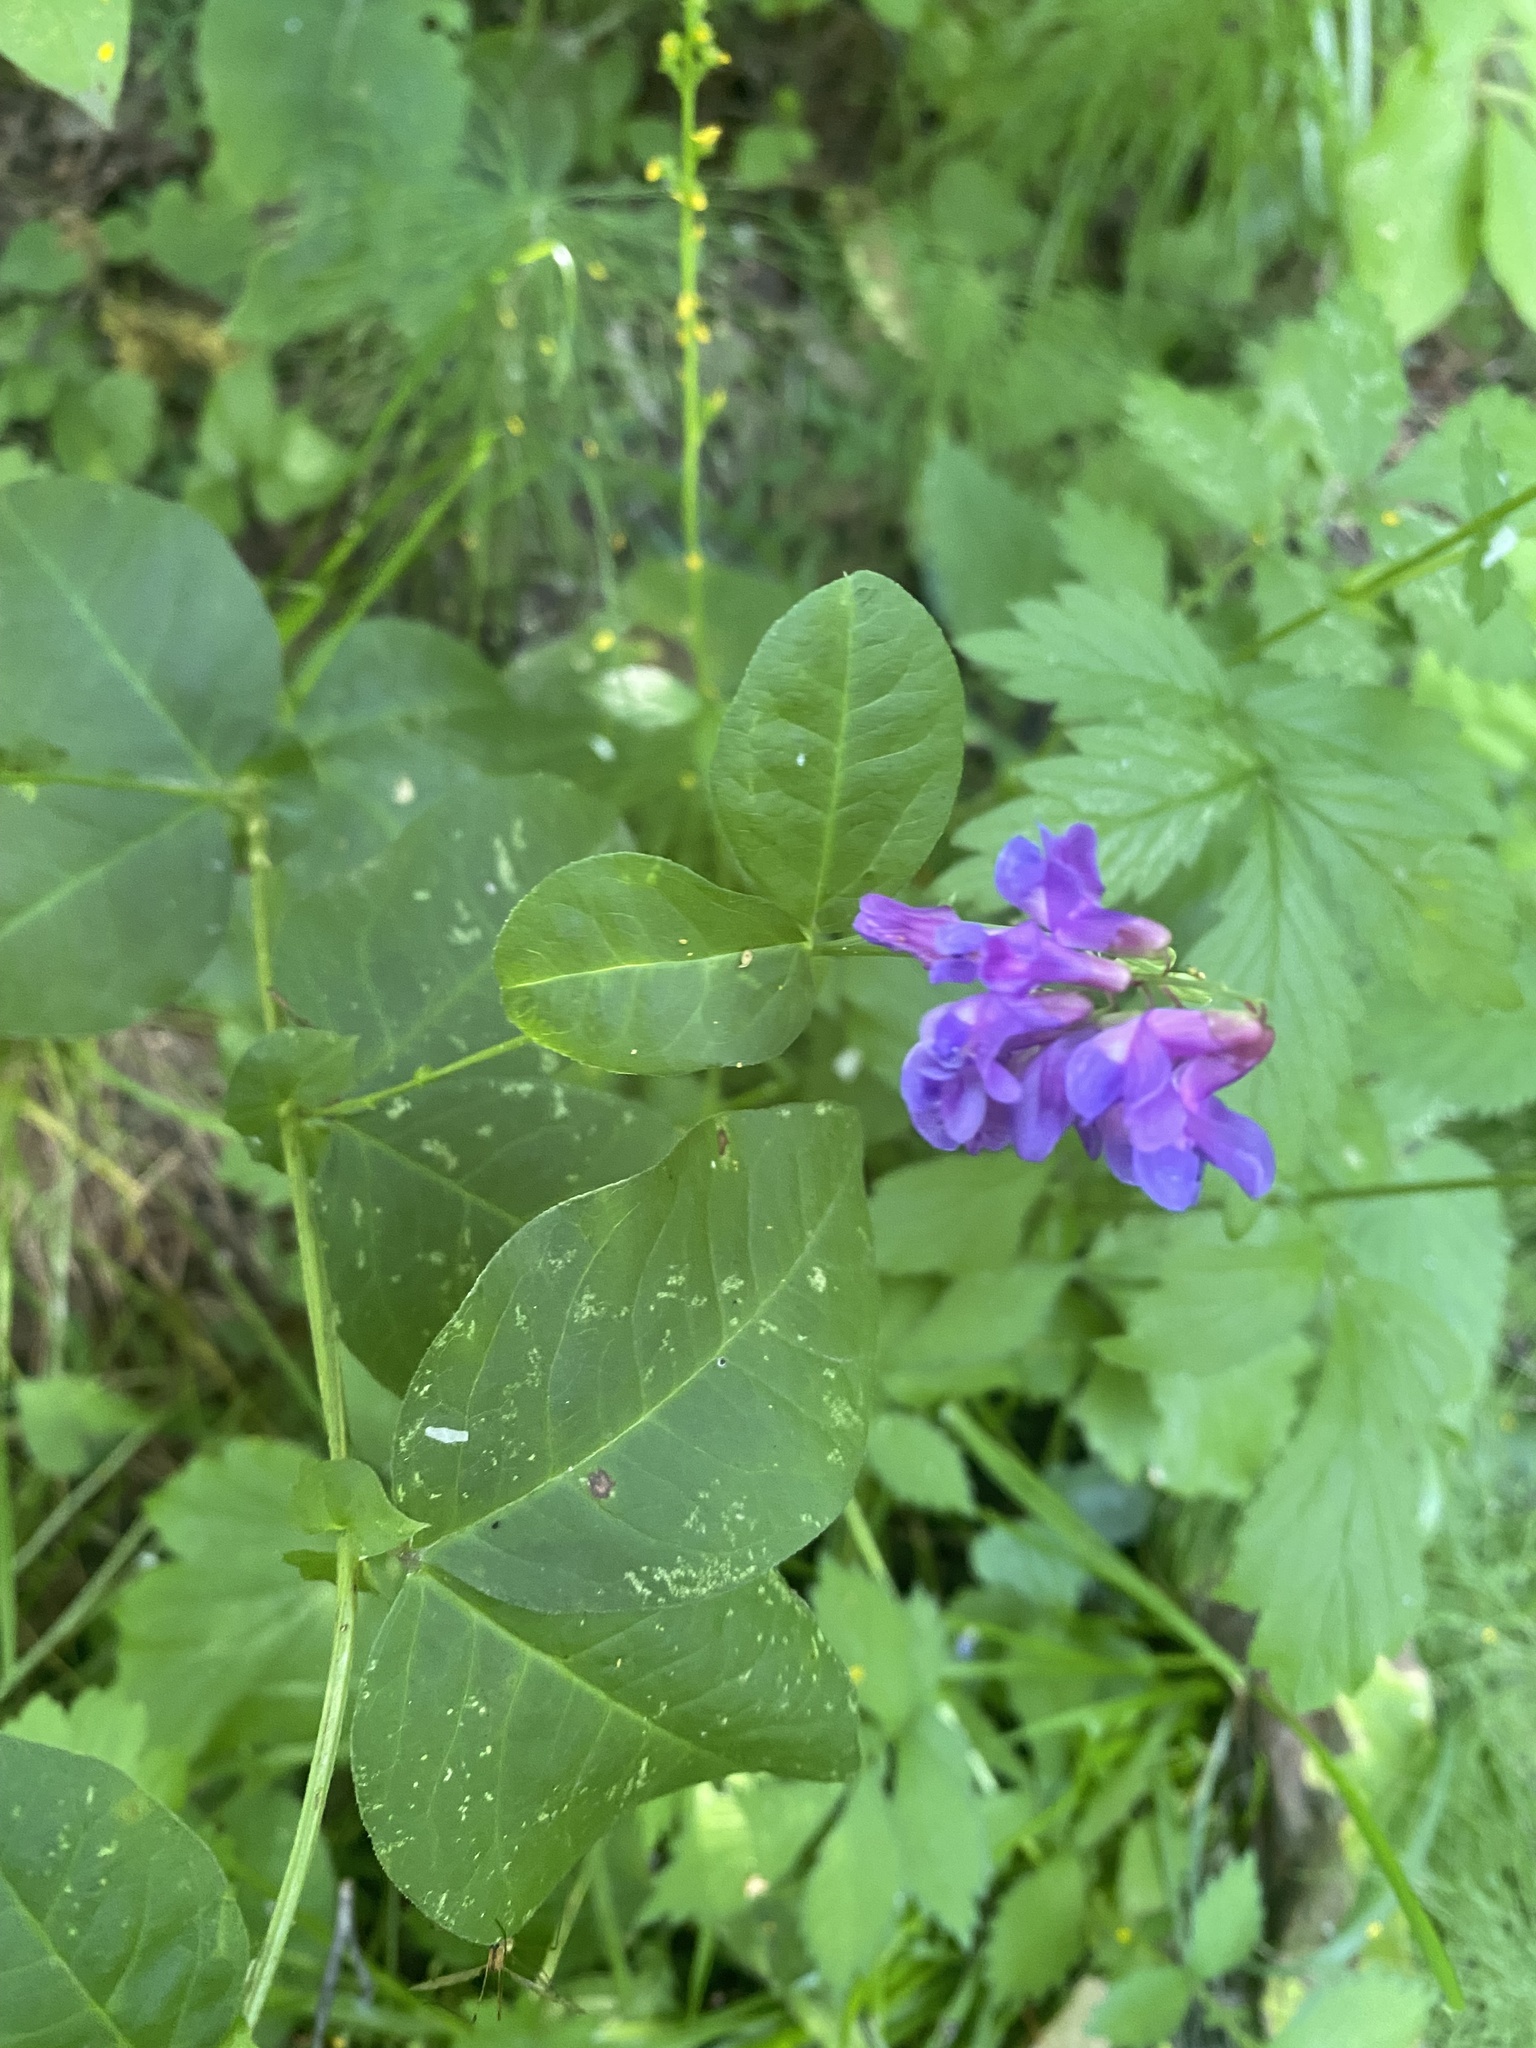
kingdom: Plantae
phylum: Tracheophyta
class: Magnoliopsida
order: Fabales
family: Fabaceae
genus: Vicia
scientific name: Vicia unijuga
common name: Two-leaf vetch
